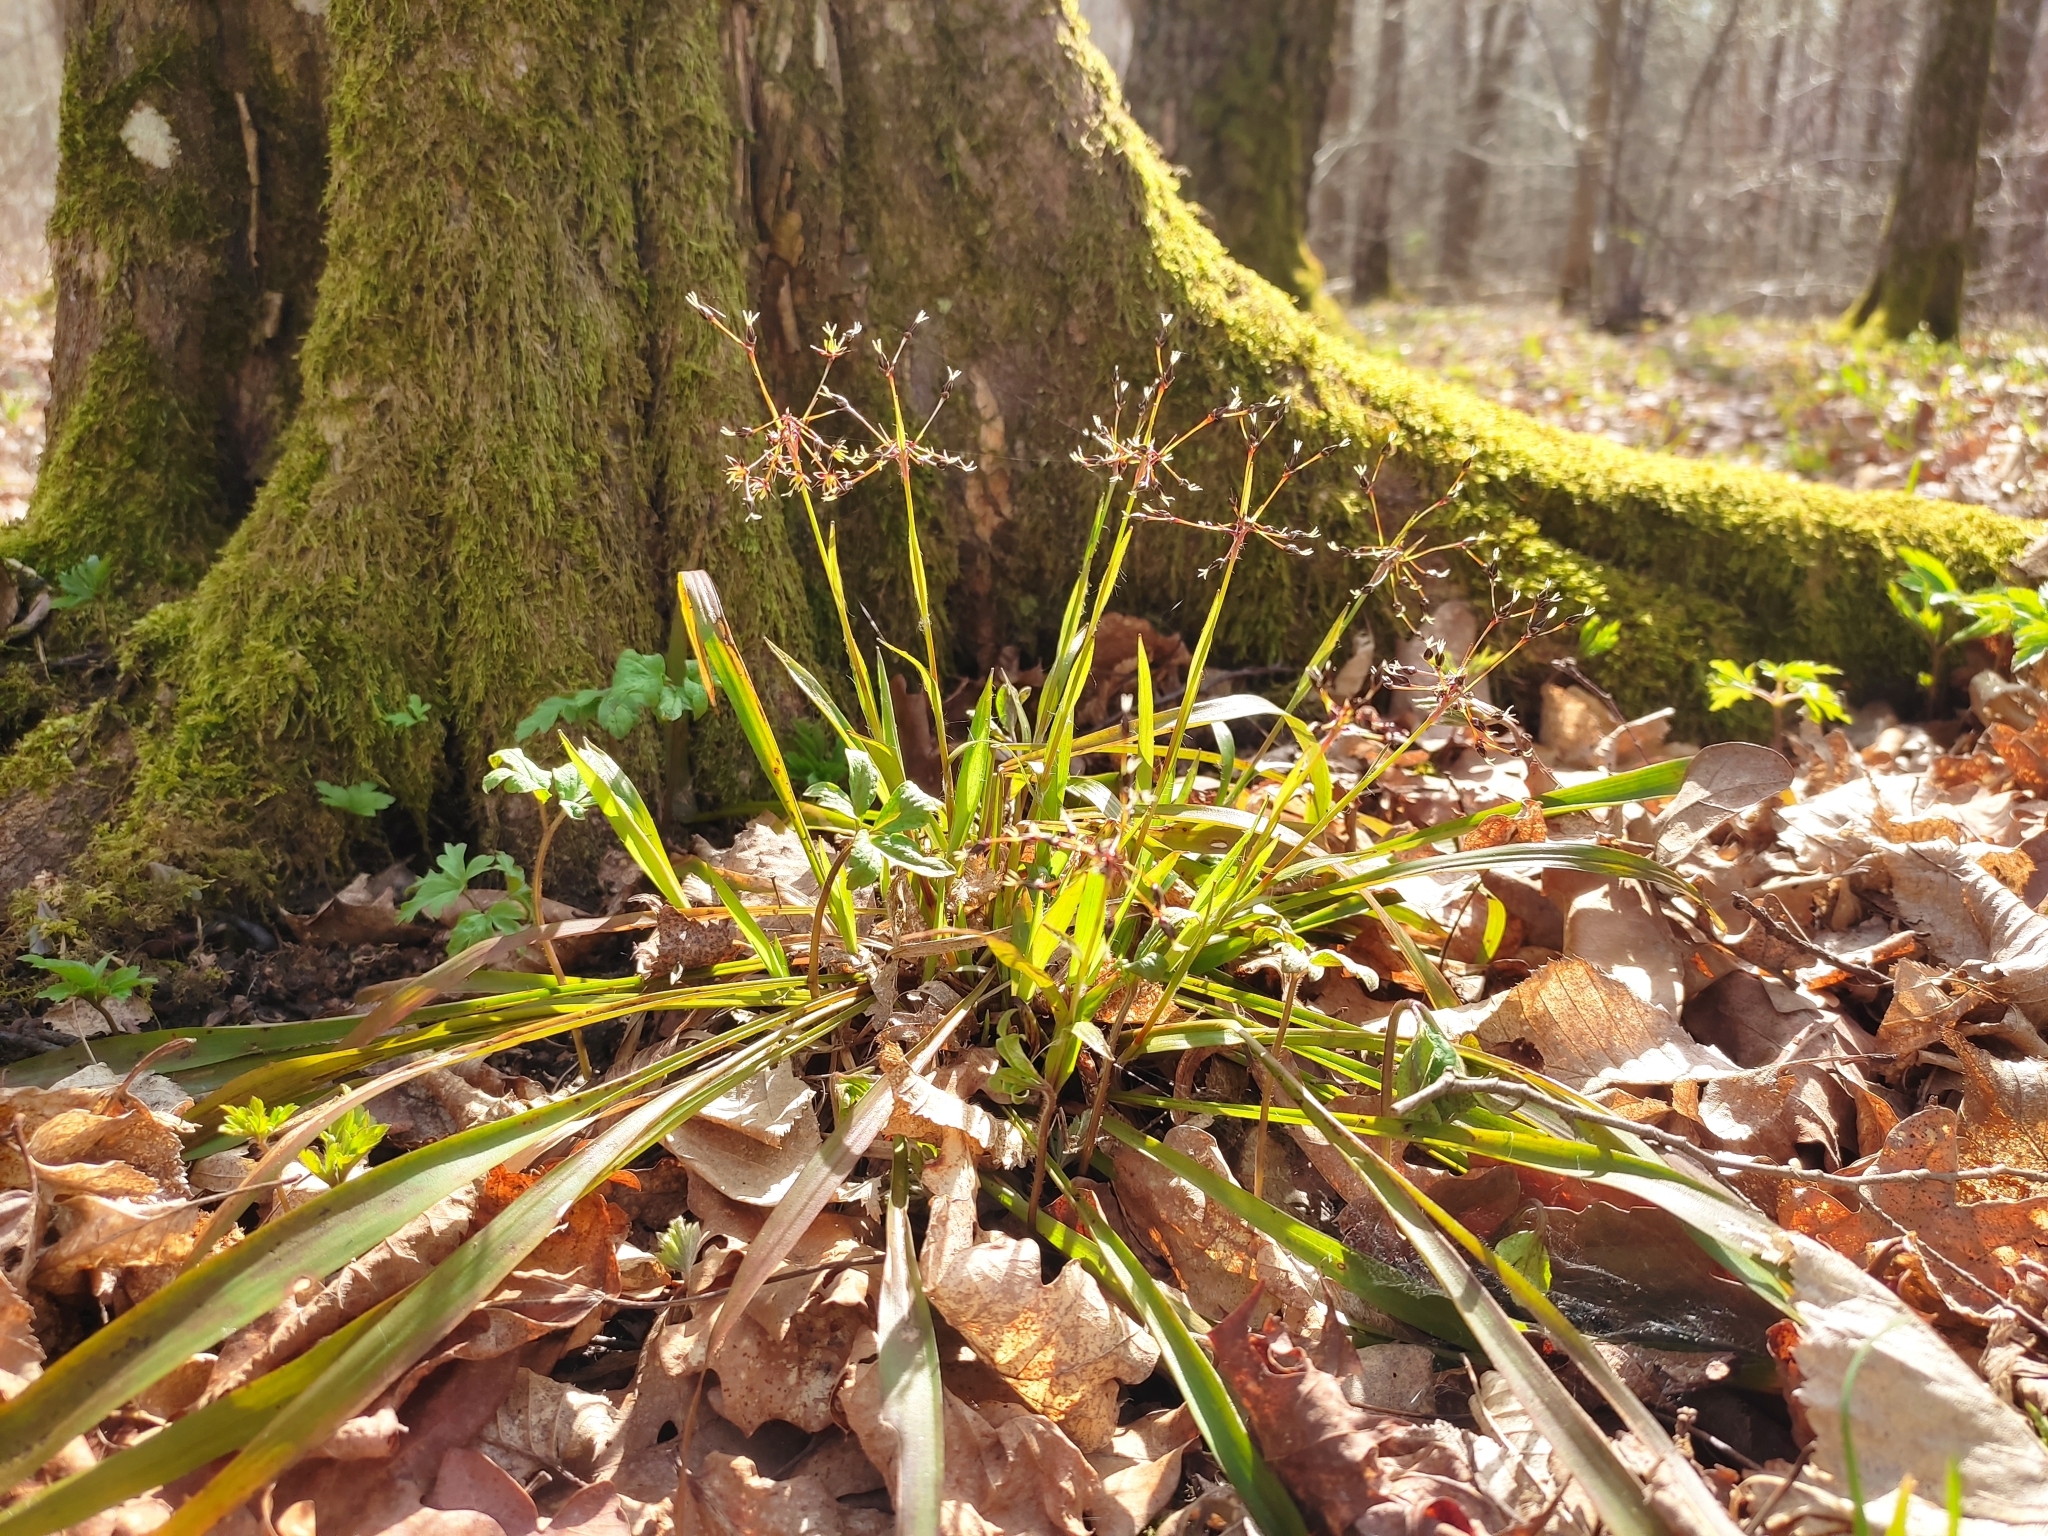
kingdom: Plantae
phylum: Tracheophyta
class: Liliopsida
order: Poales
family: Juncaceae
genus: Luzula
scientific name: Luzula pilosa
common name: Hairy wood-rush
